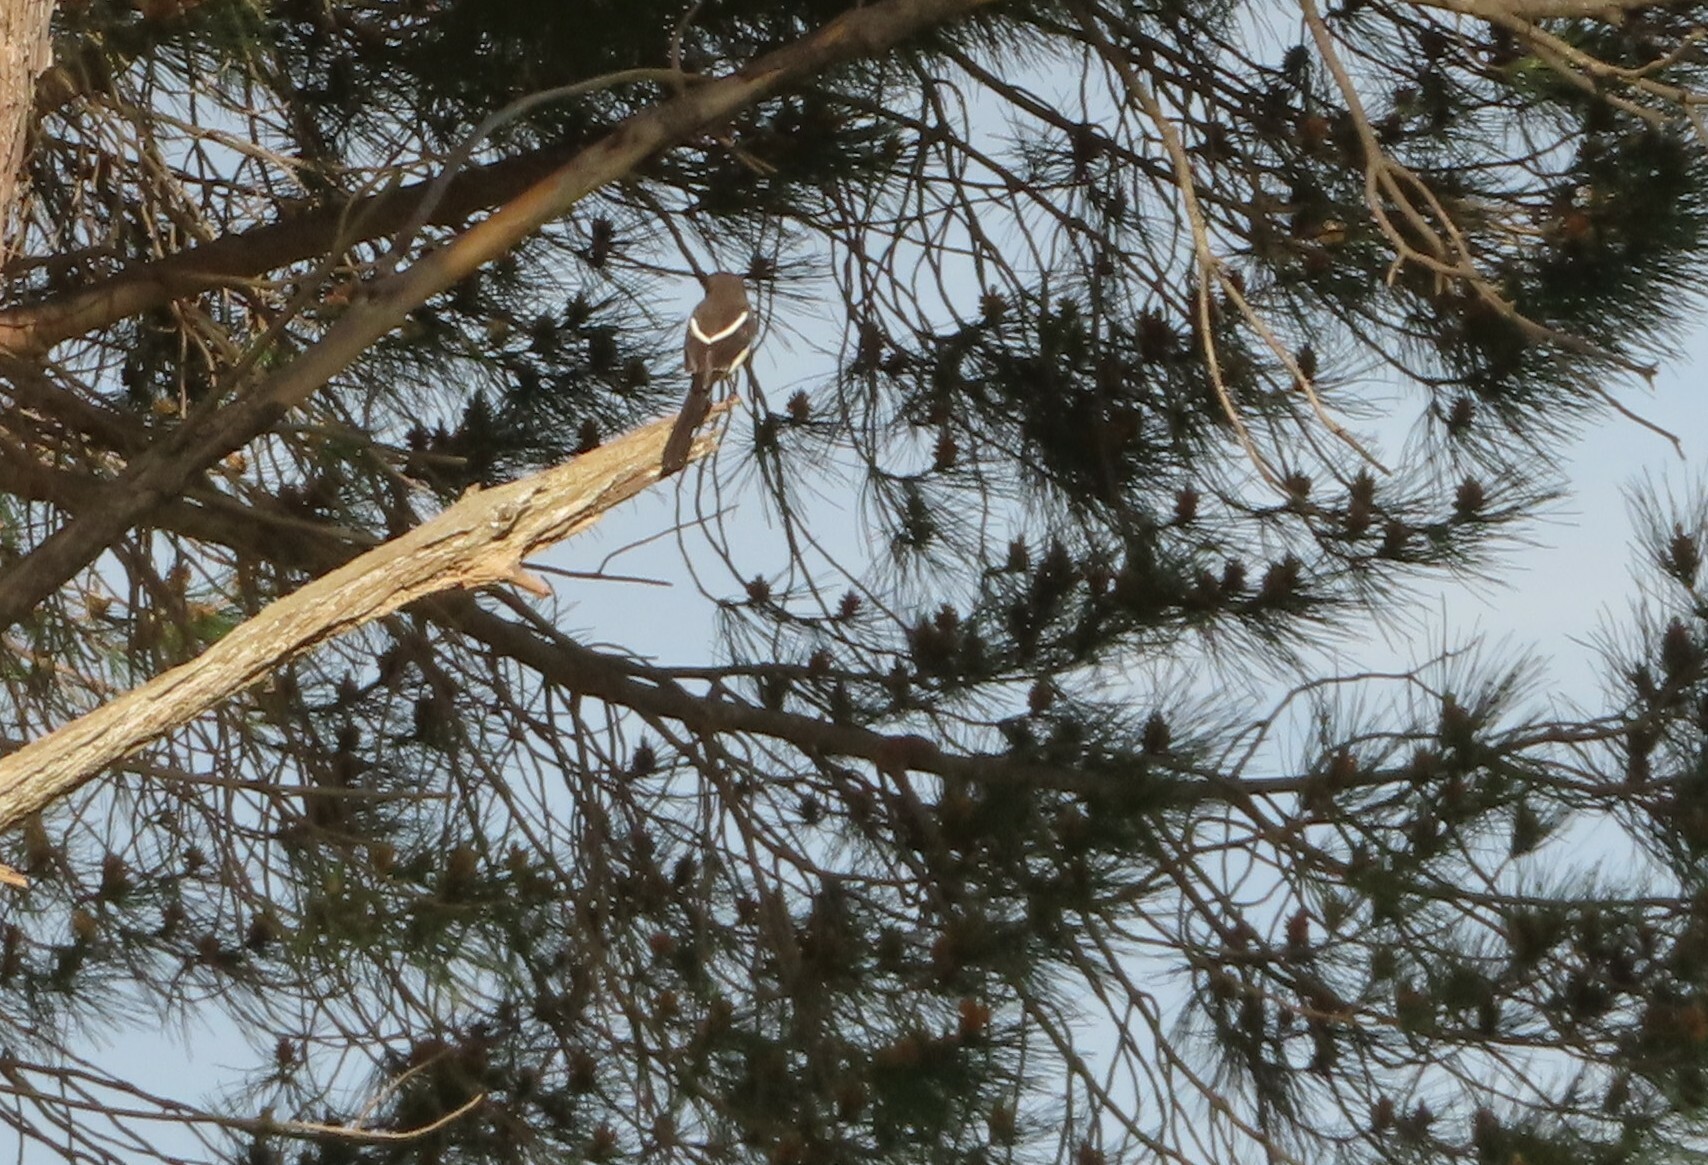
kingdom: Animalia
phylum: Chordata
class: Aves
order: Passeriformes
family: Laniidae
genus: Lanius
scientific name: Lanius collaris
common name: Southern fiscal
